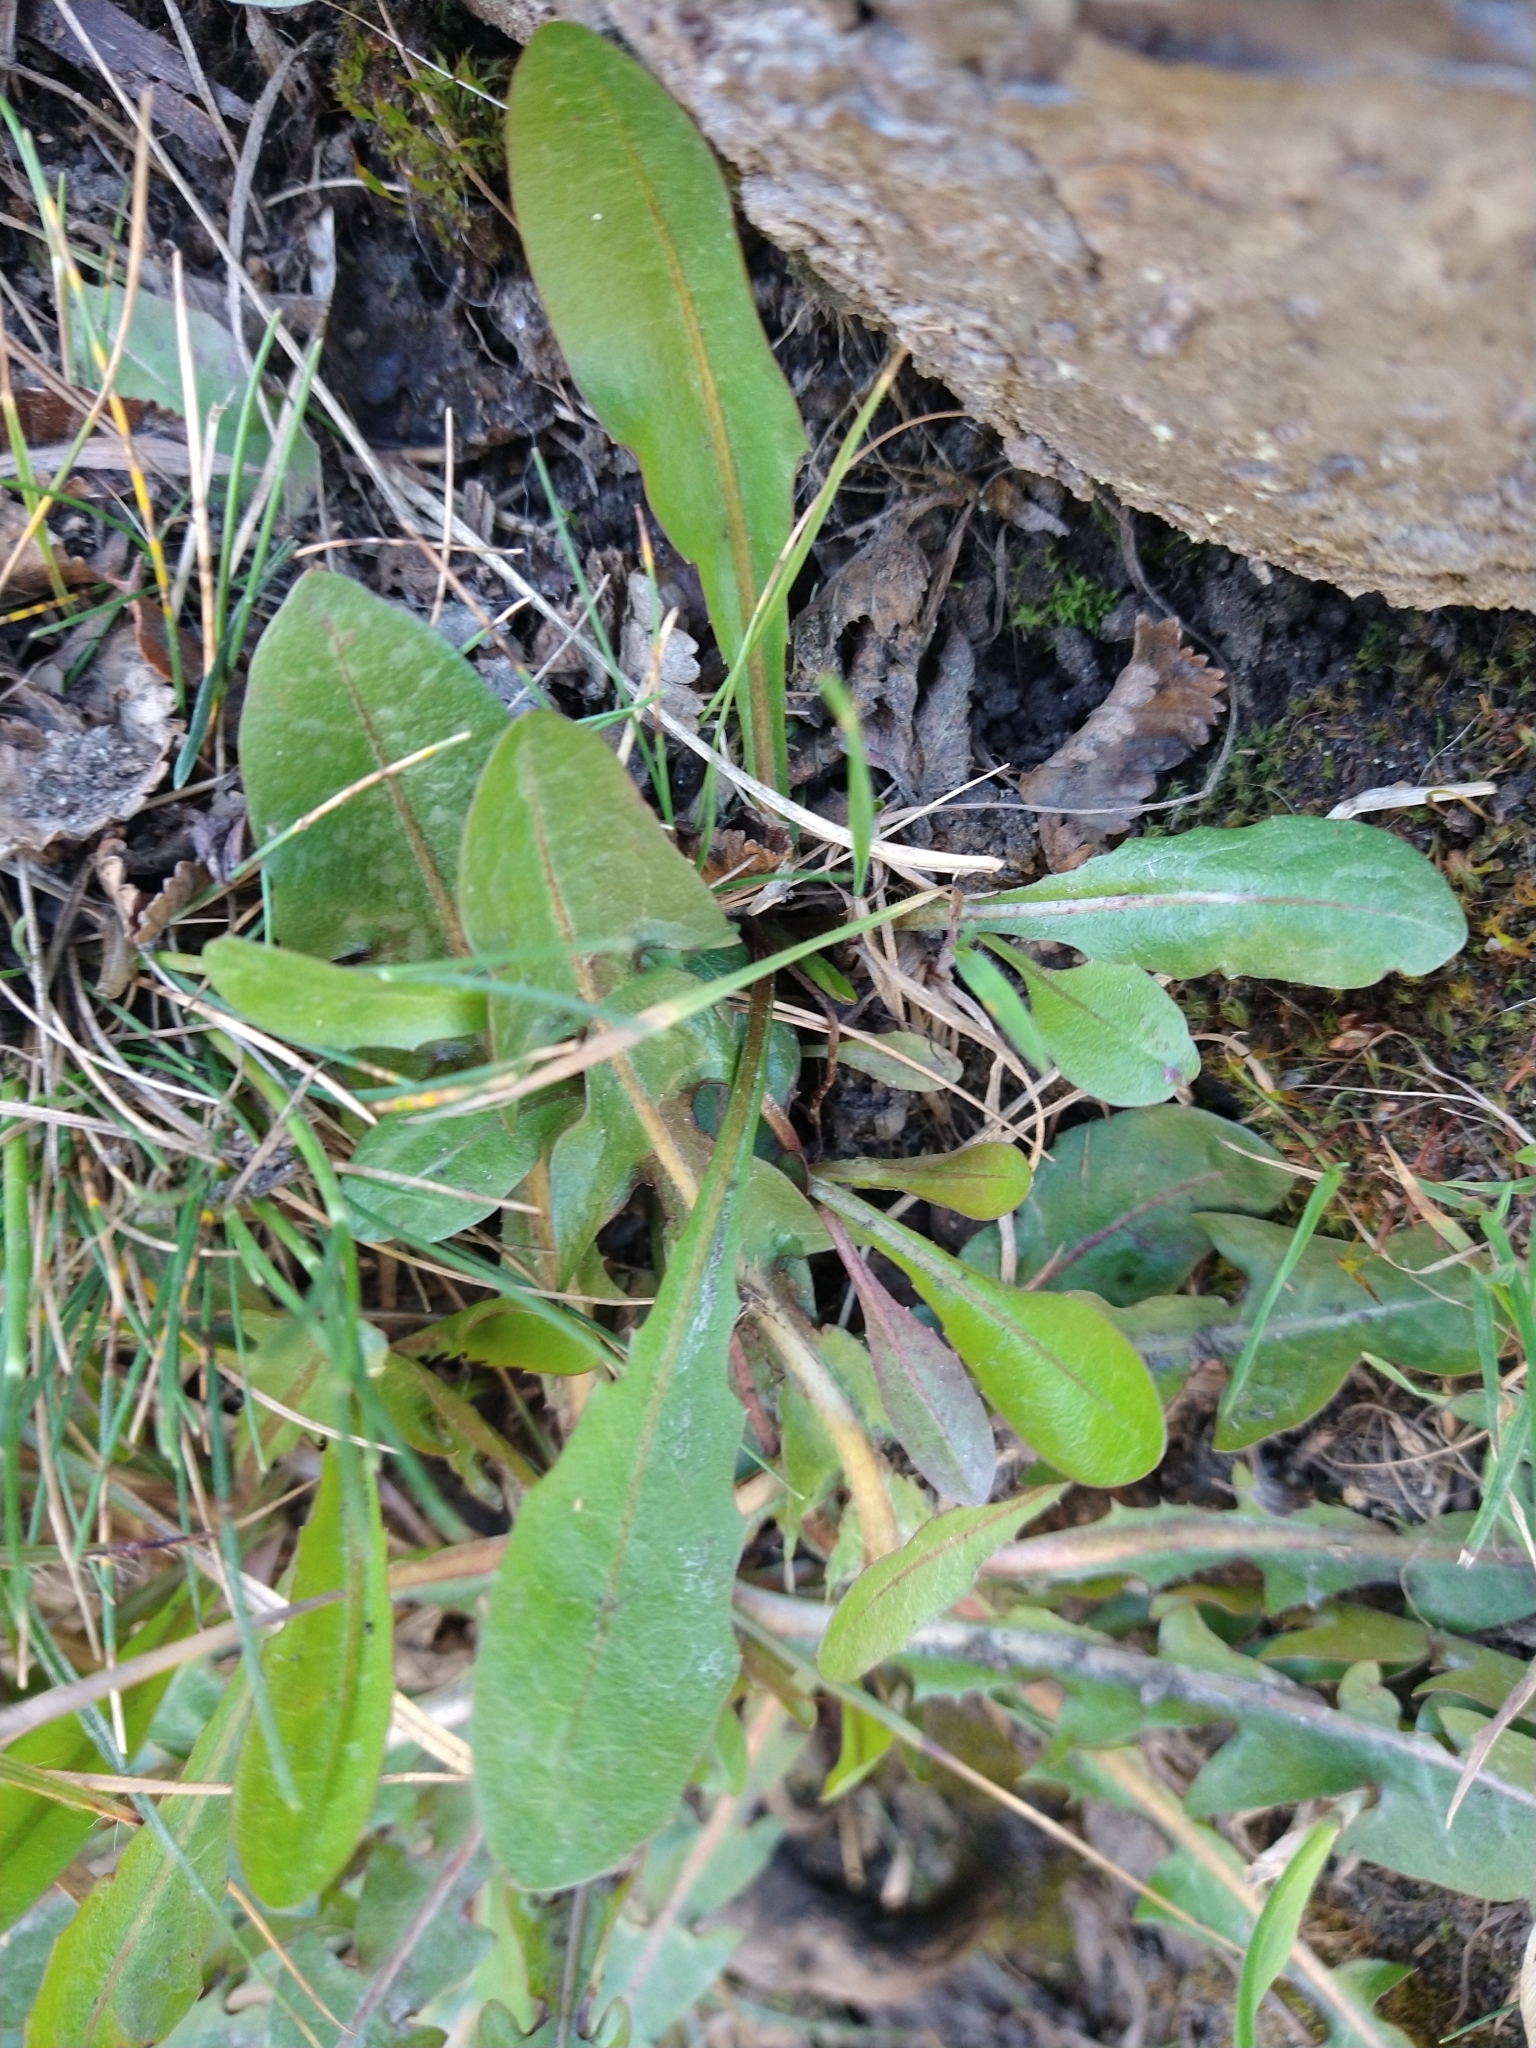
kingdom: Plantae
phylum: Tracheophyta
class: Magnoliopsida
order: Asterales
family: Asteraceae
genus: Taraxacum
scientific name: Taraxacum officinale
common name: Common dandelion
